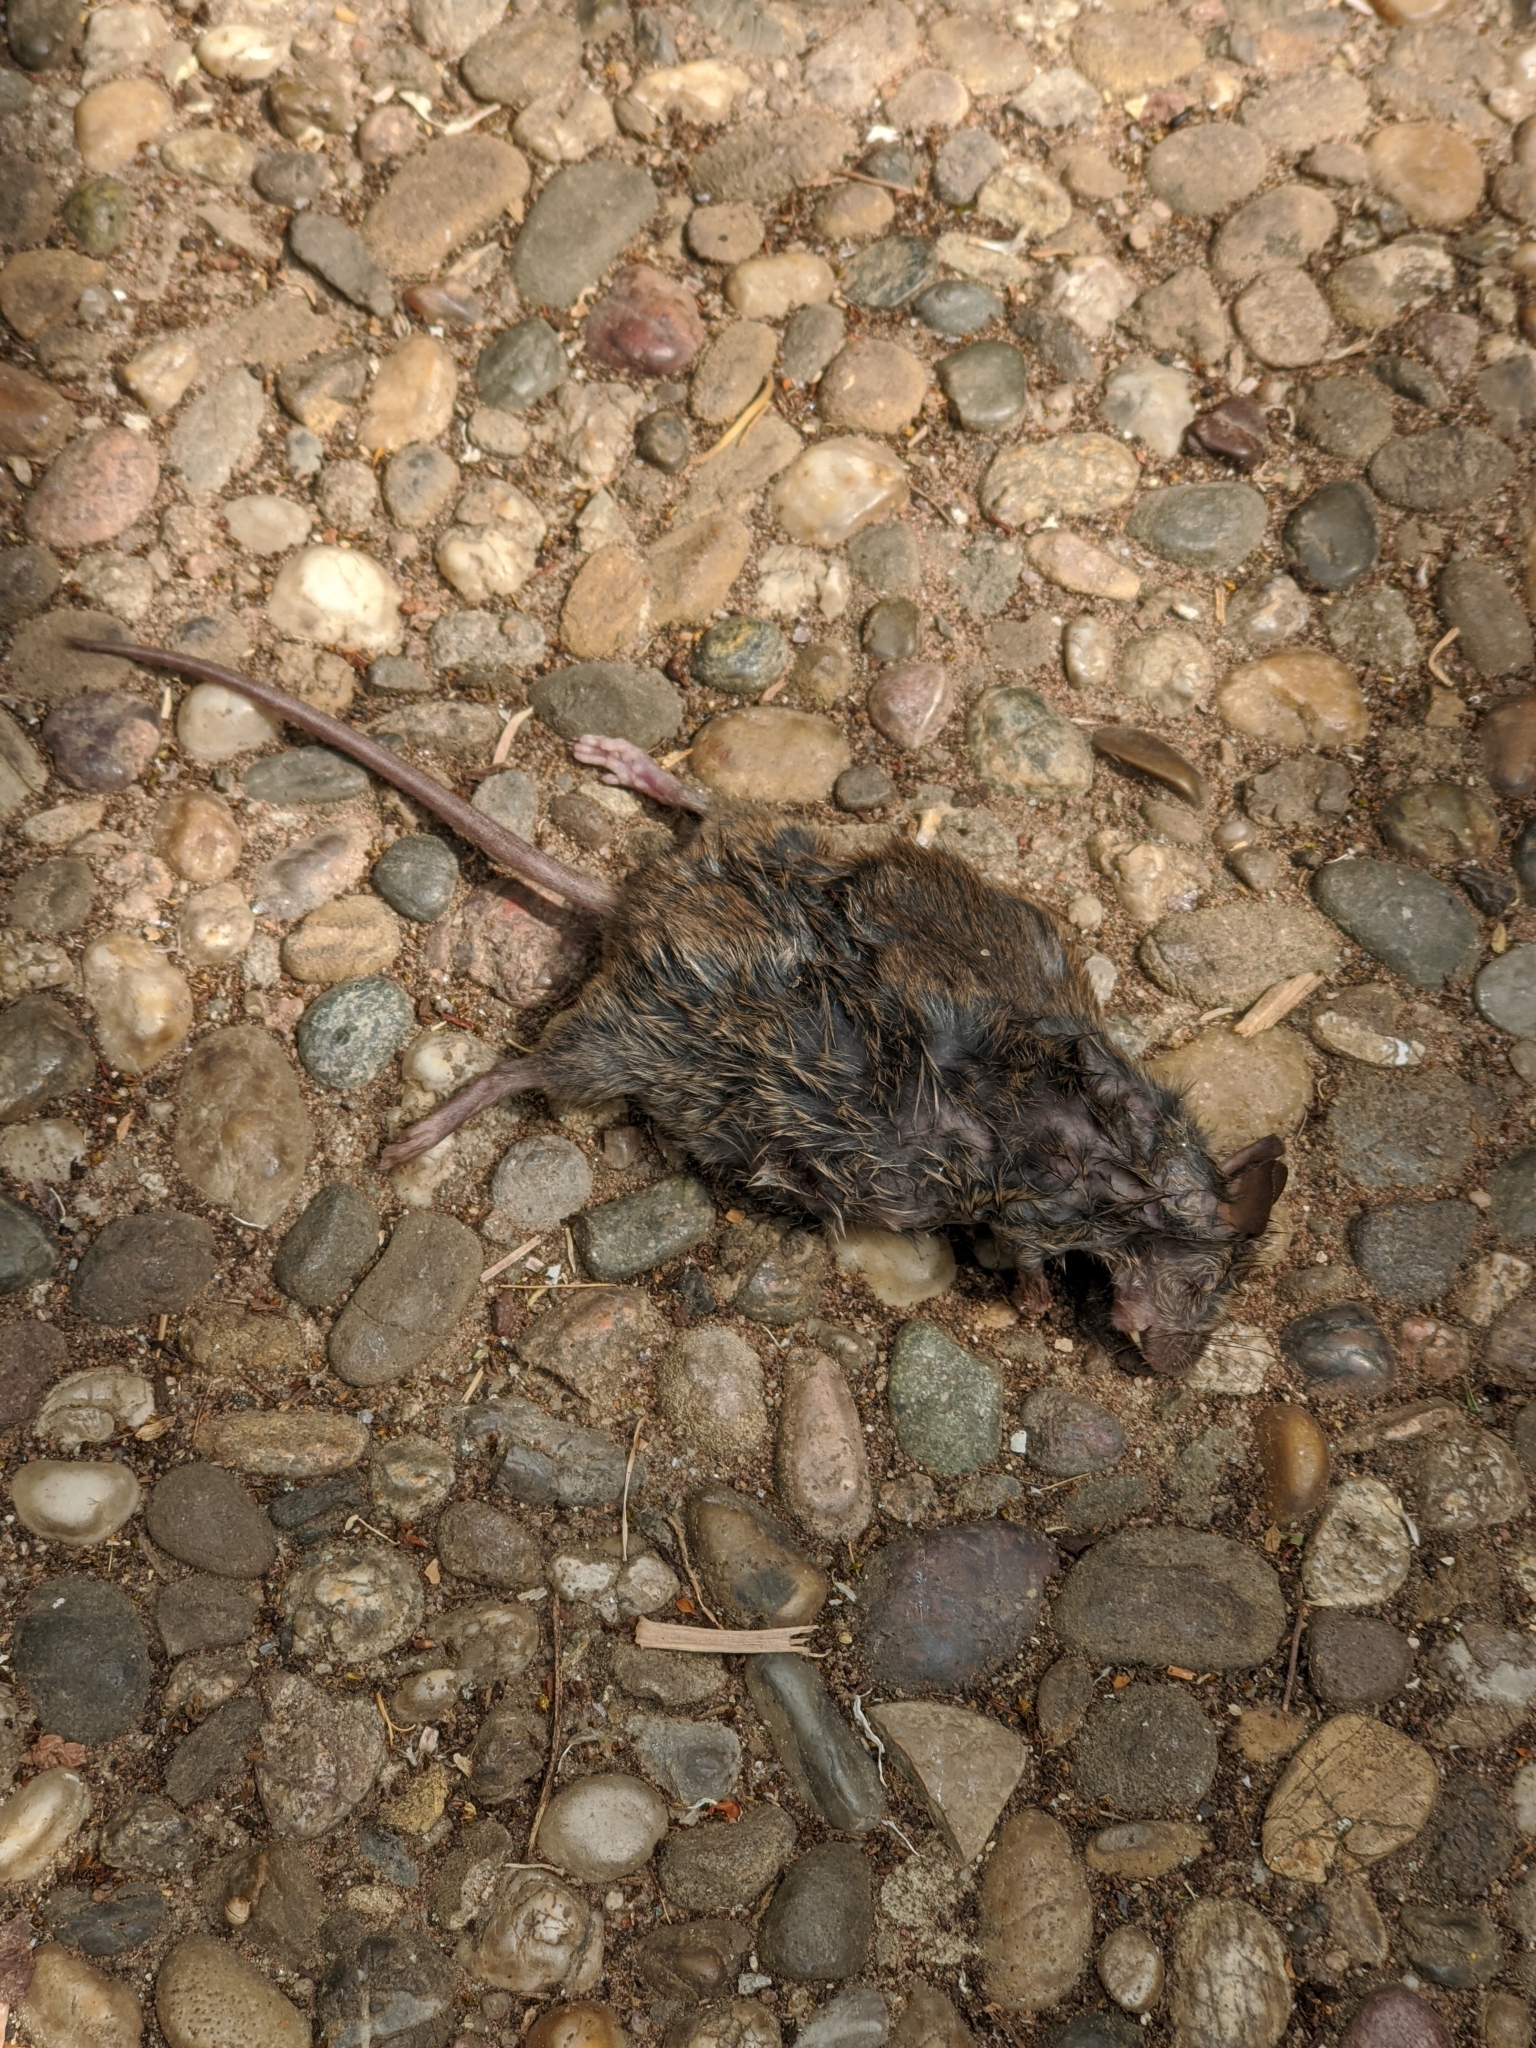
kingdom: Animalia
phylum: Chordata
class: Mammalia
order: Rodentia
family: Muridae
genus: Mus
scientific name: Mus musculus
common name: House mouse
